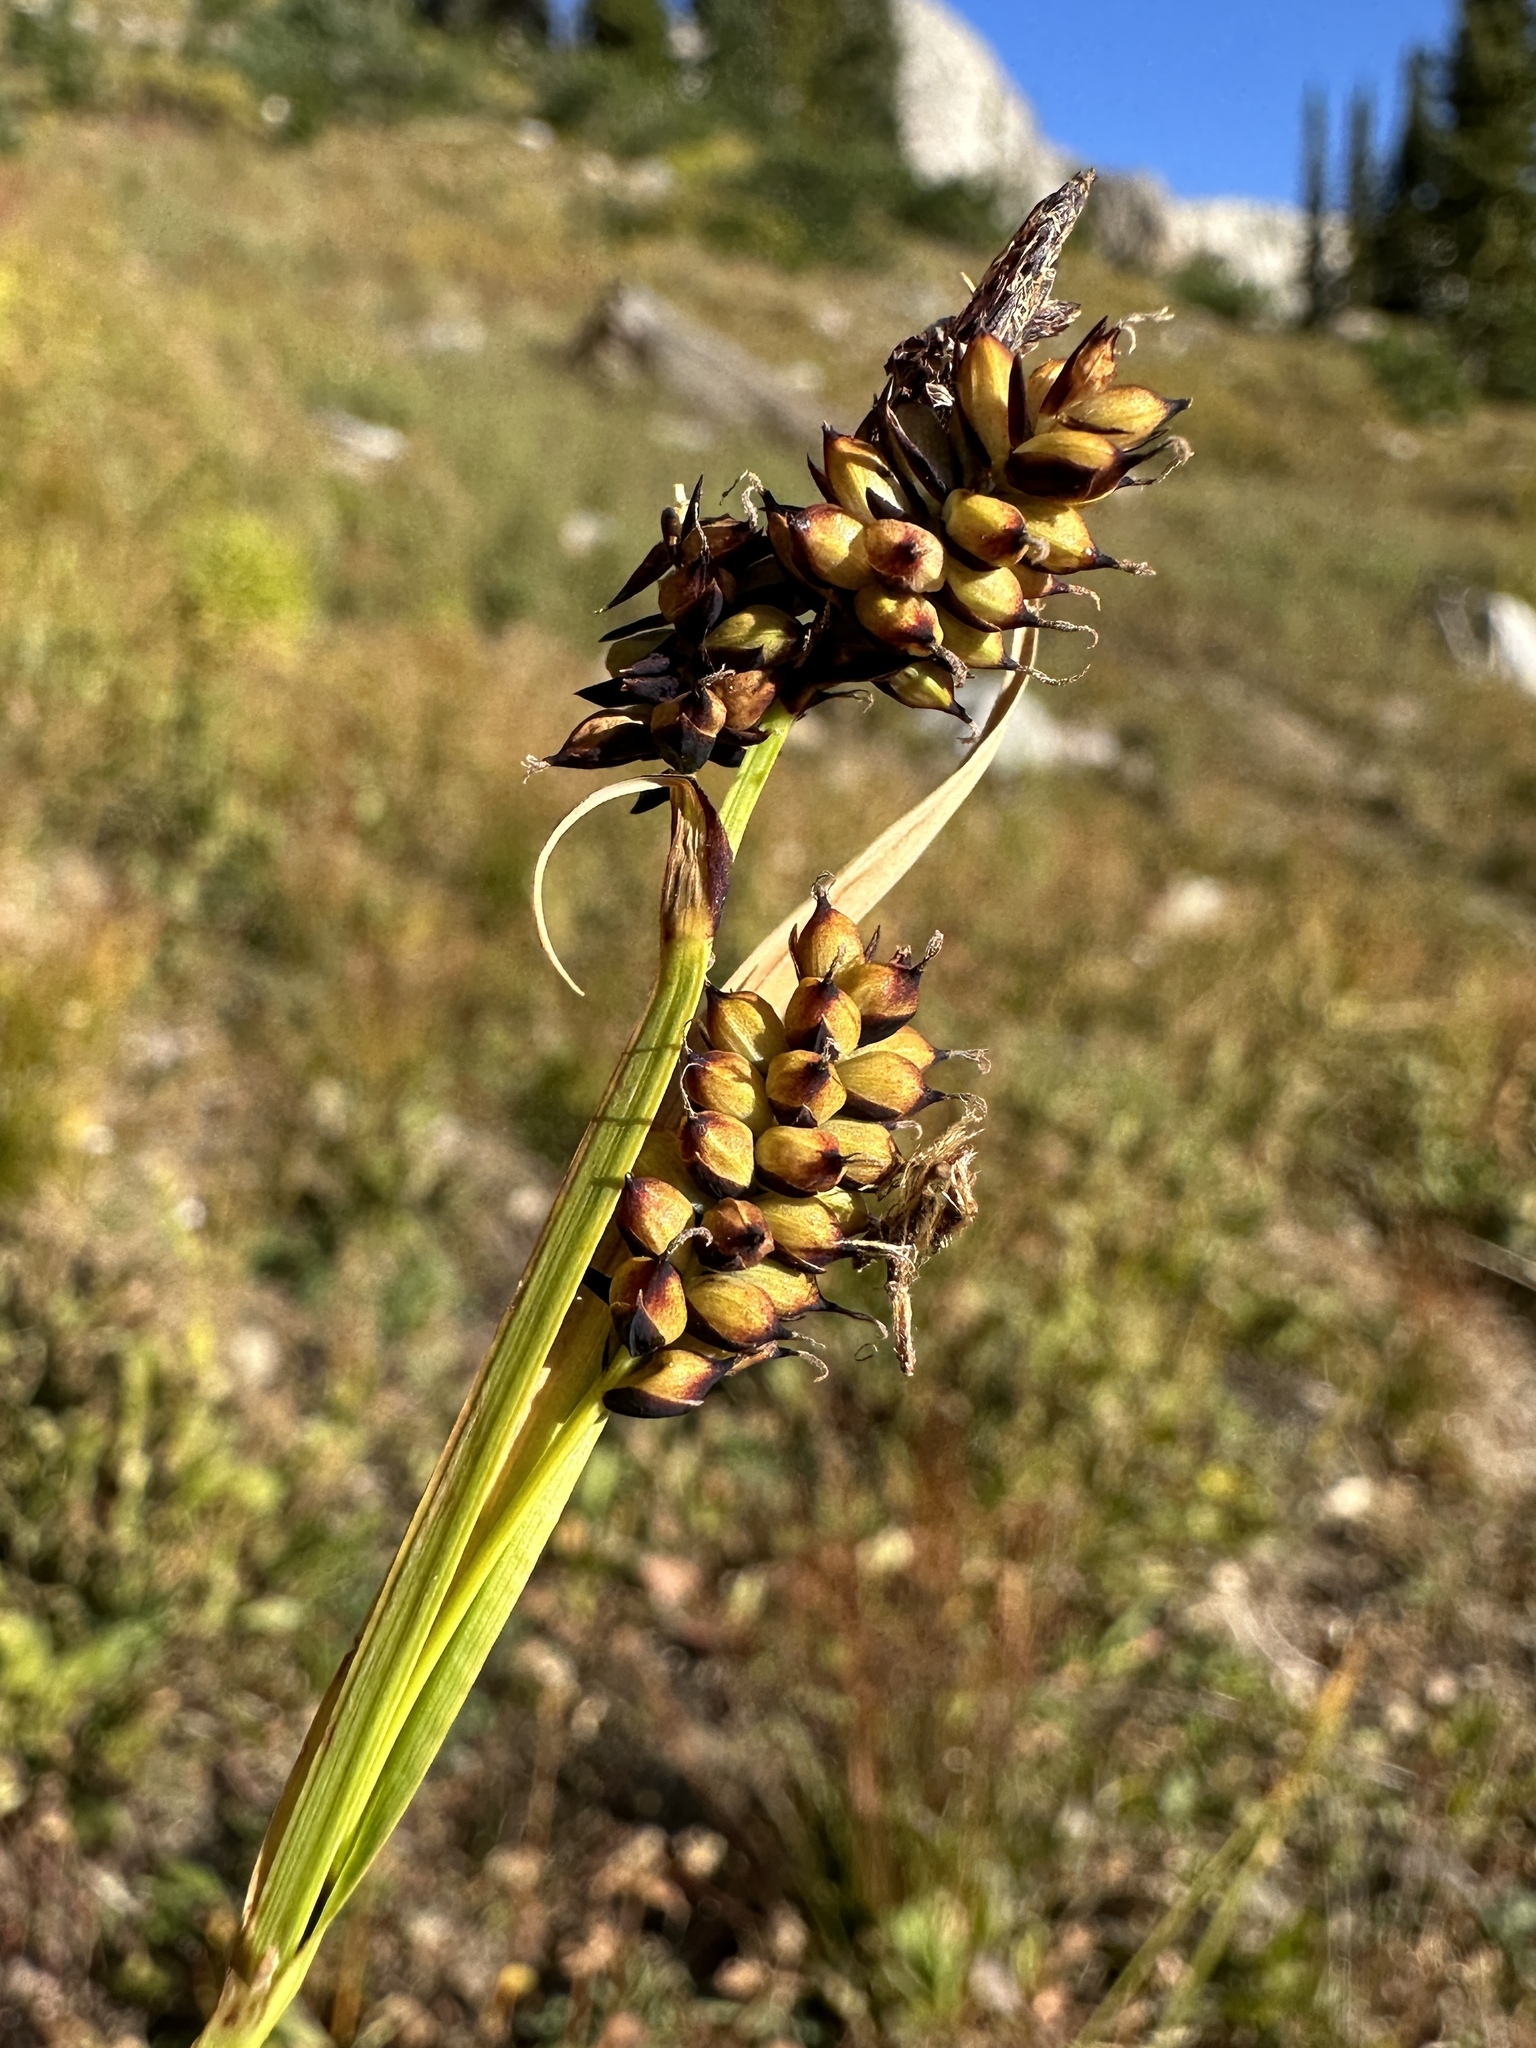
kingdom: Plantae
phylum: Tracheophyta
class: Liliopsida
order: Poales
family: Cyperaceae
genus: Carex
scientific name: Carex raynoldsii
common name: Raynolds' sedge
